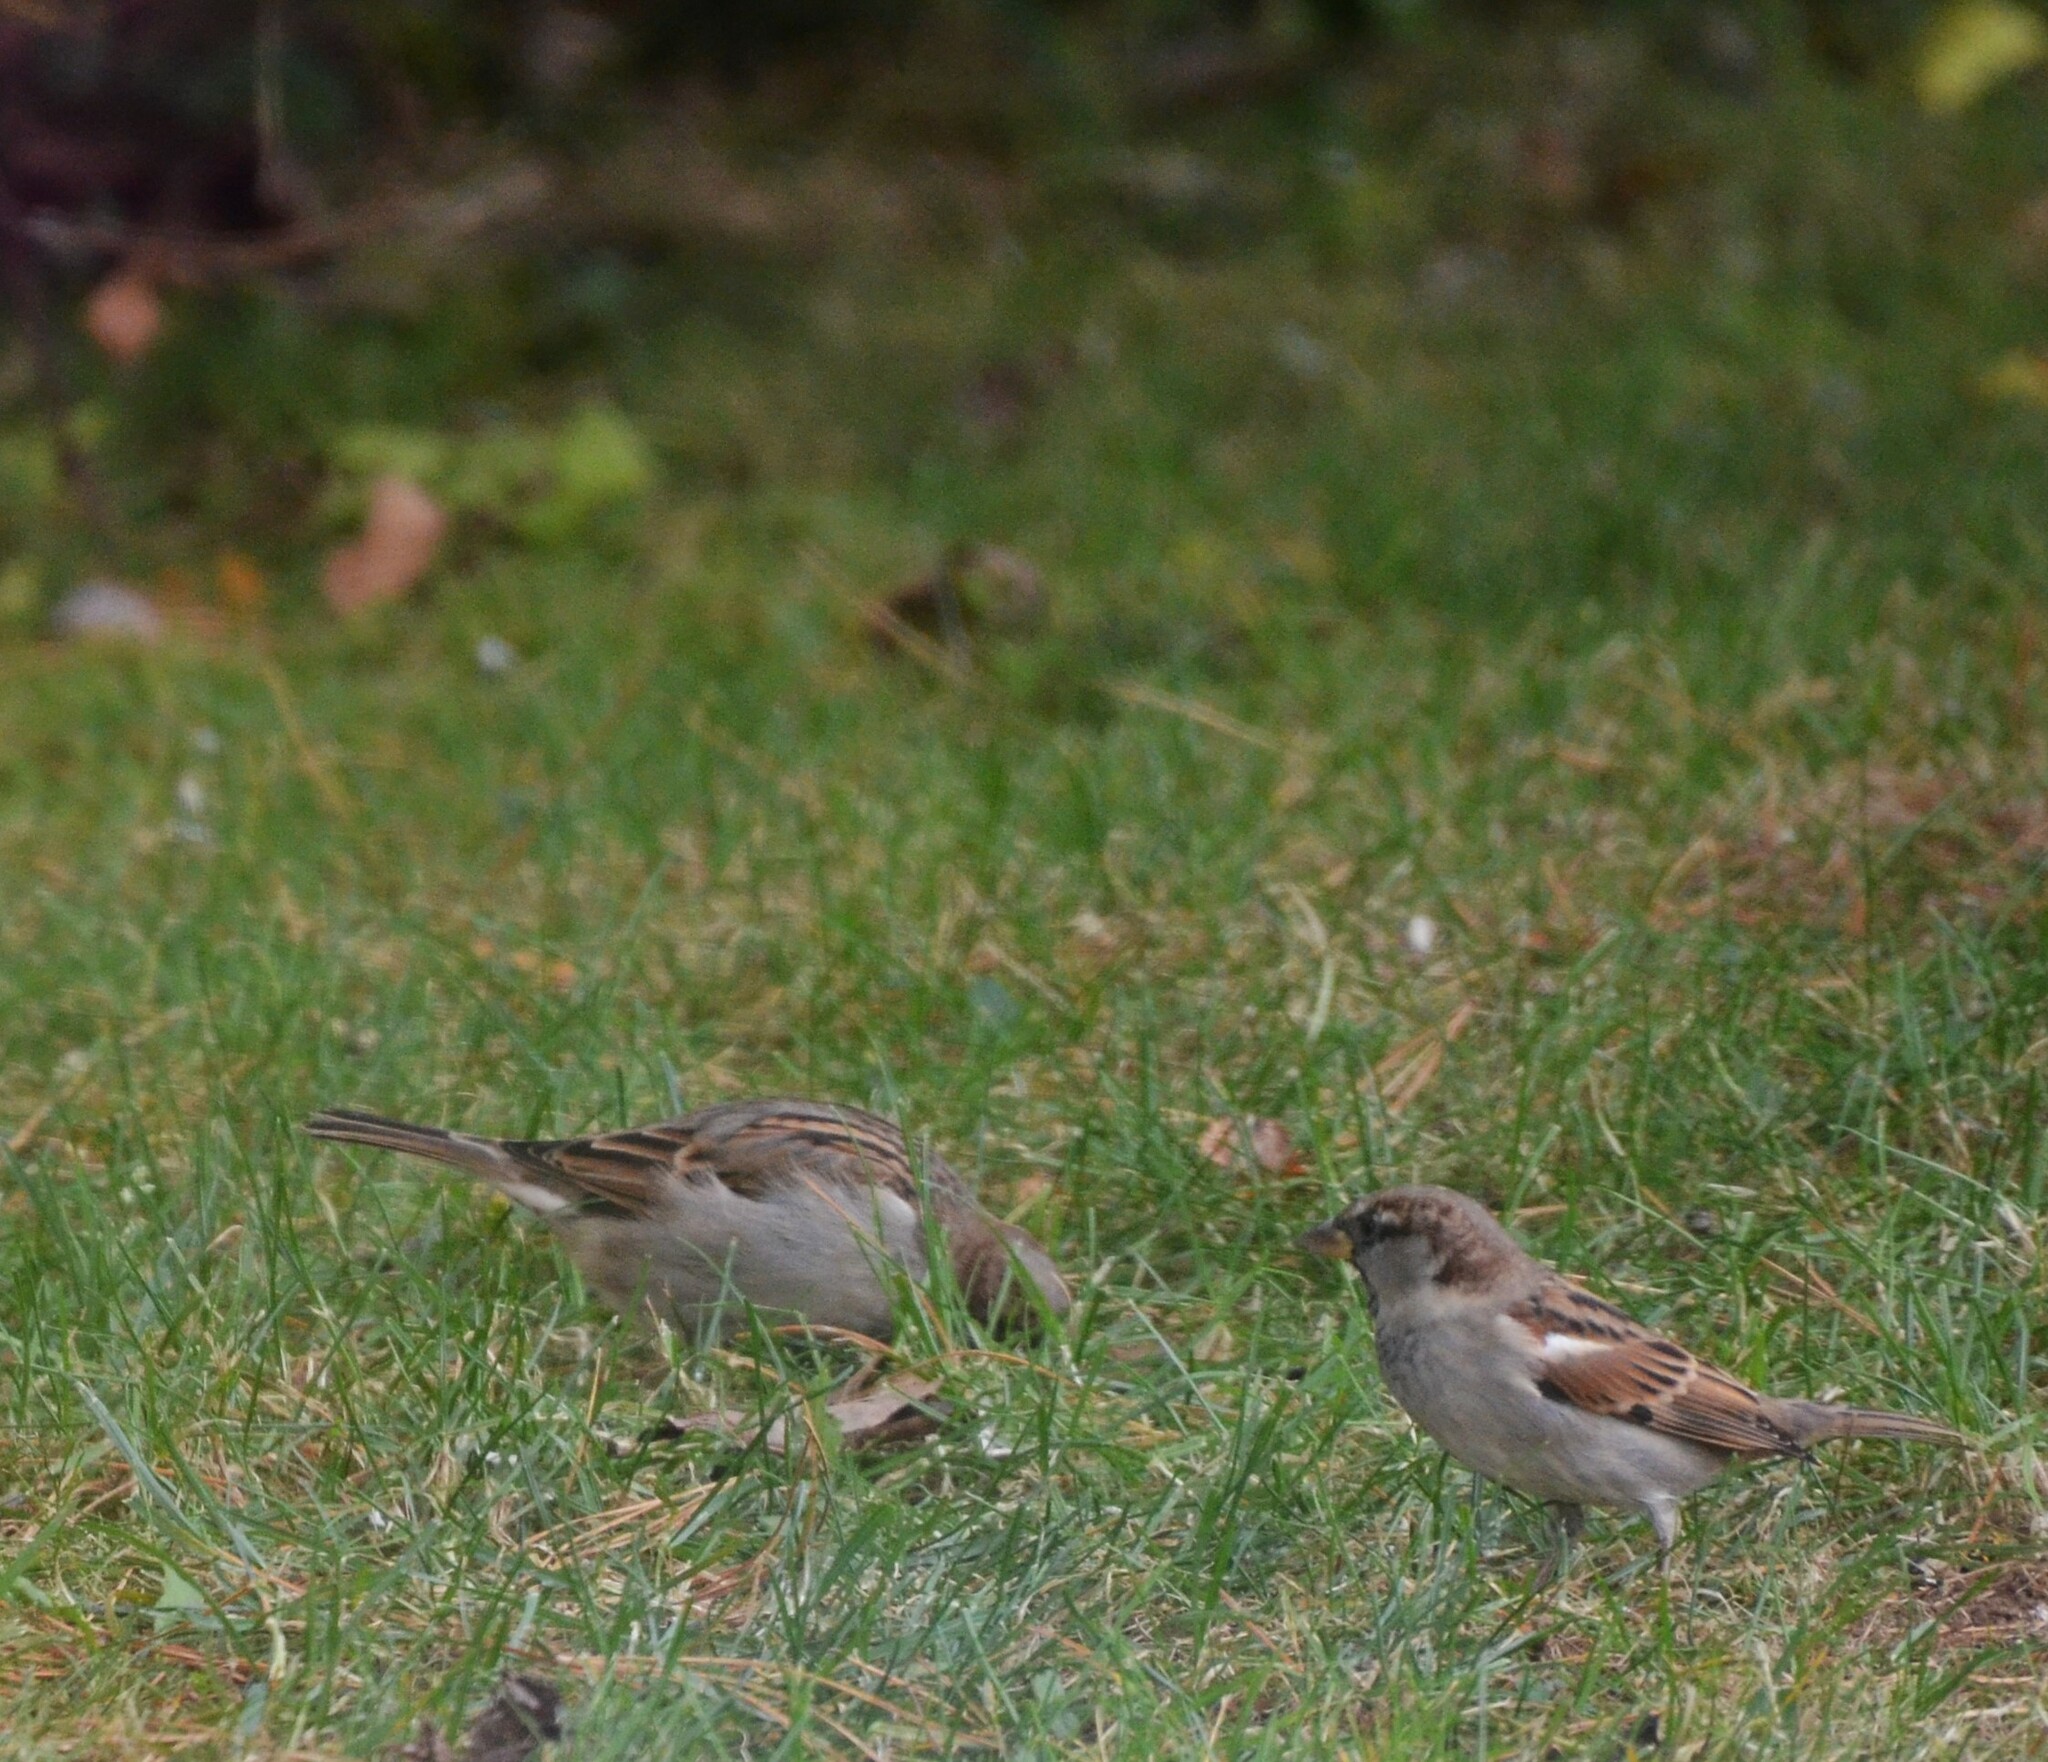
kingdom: Animalia
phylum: Chordata
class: Aves
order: Passeriformes
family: Passeridae
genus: Passer
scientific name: Passer domesticus
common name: House sparrow
